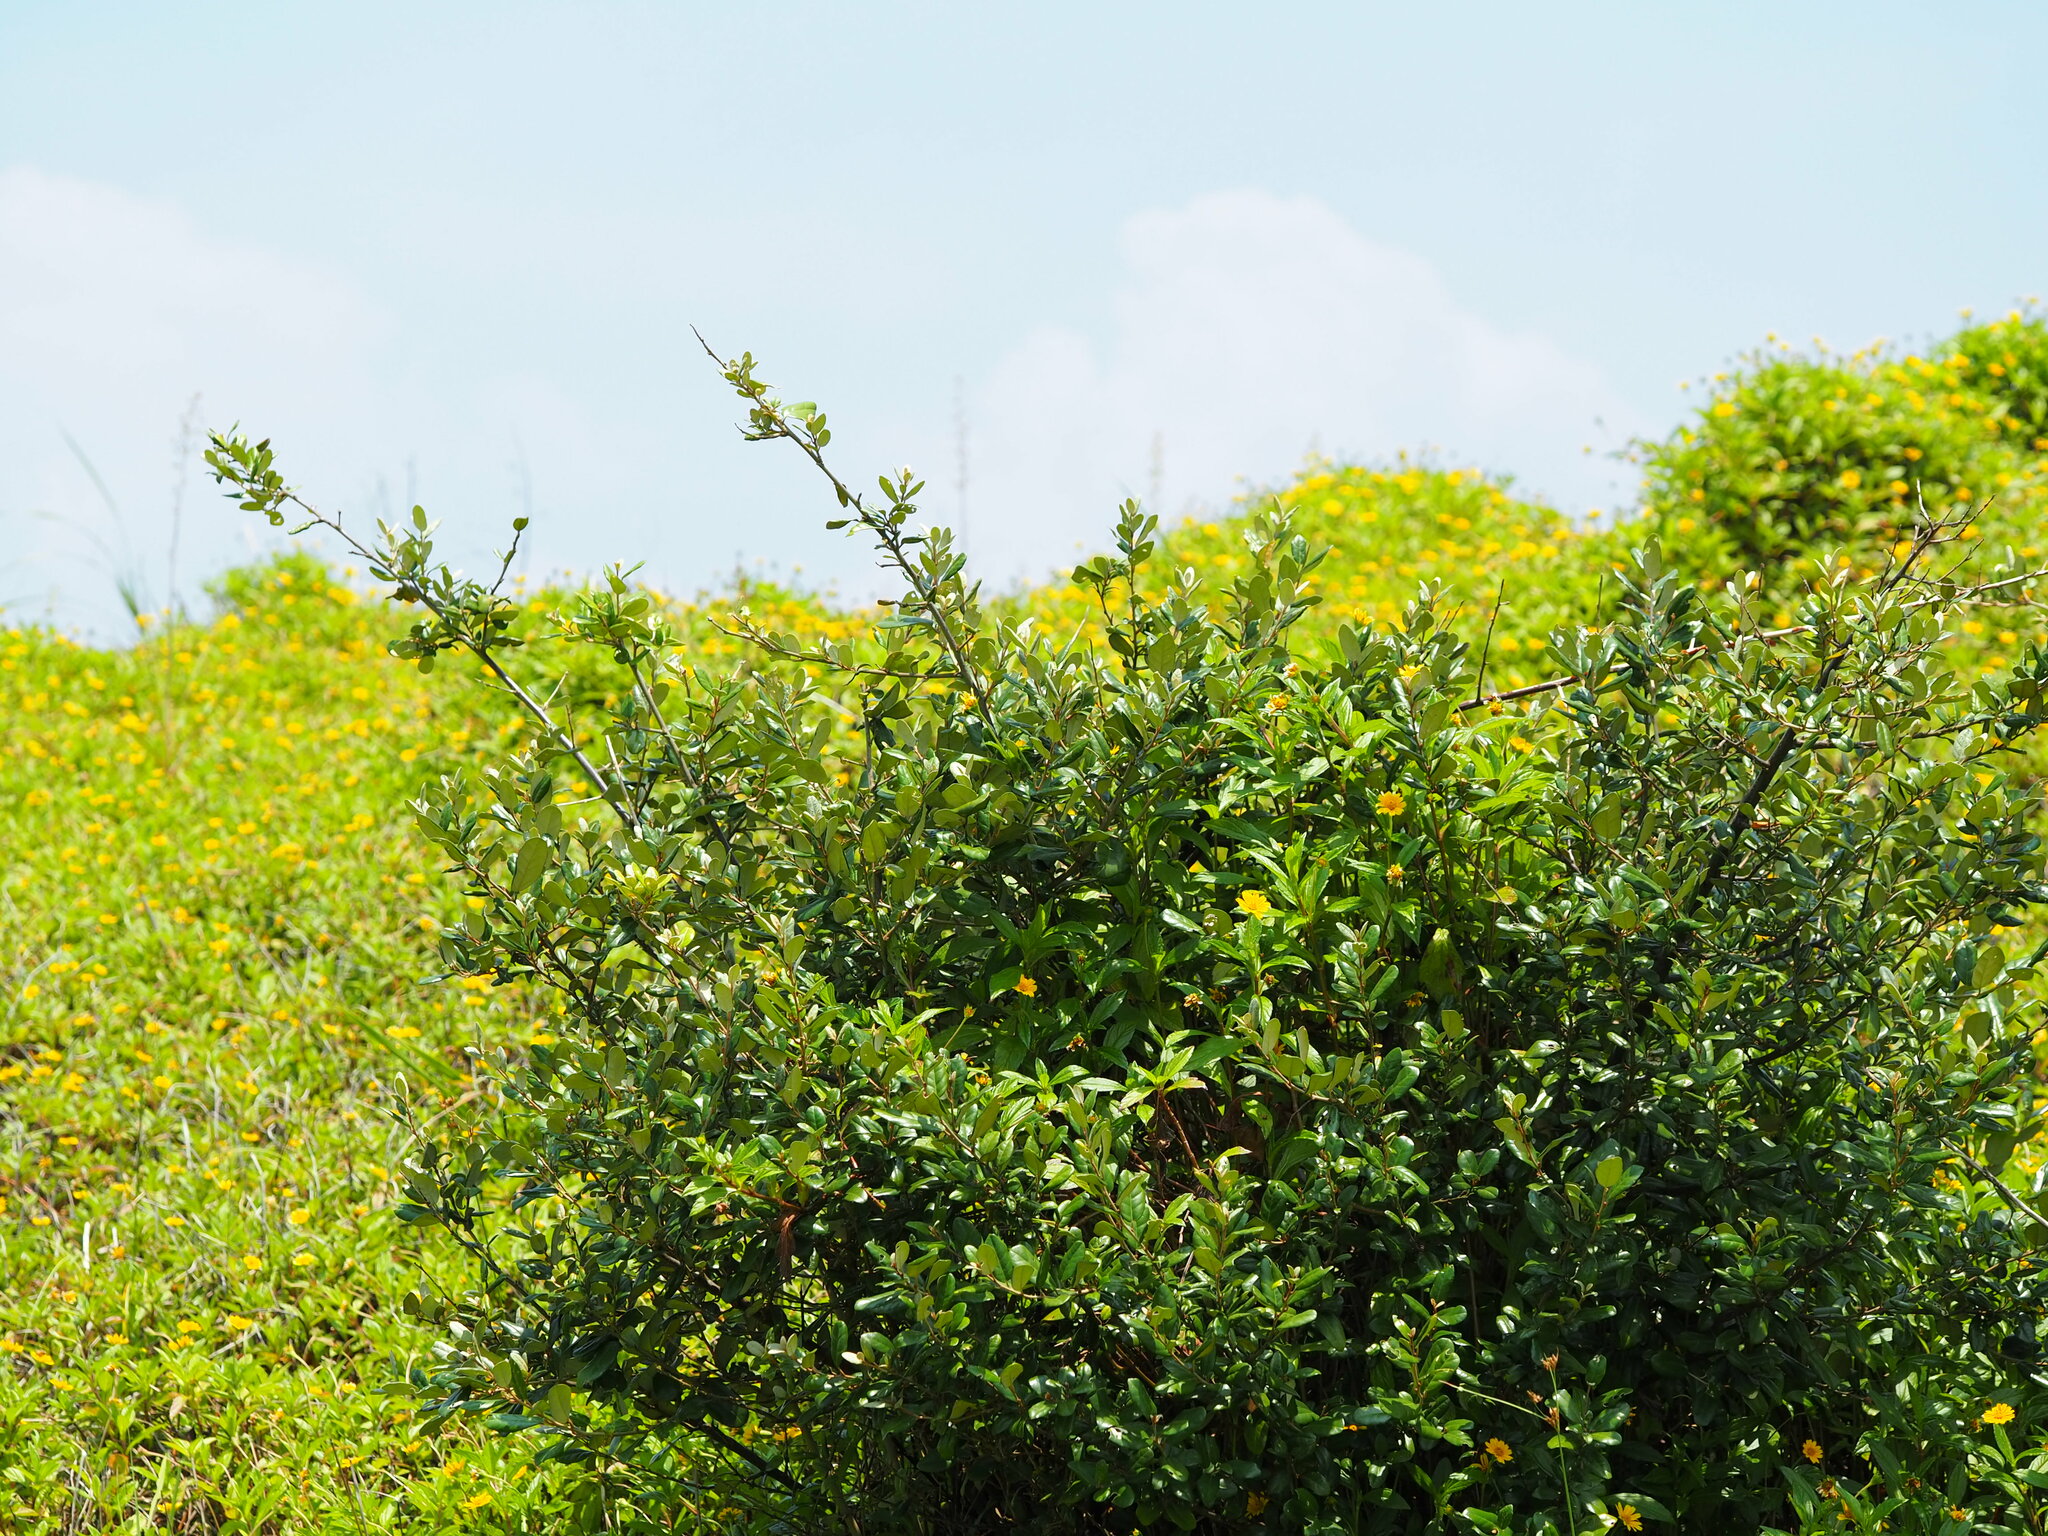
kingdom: Plantae
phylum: Tracheophyta
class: Magnoliopsida
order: Rosales
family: Elaeagnaceae
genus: Elaeagnus
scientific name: Elaeagnus formosana
